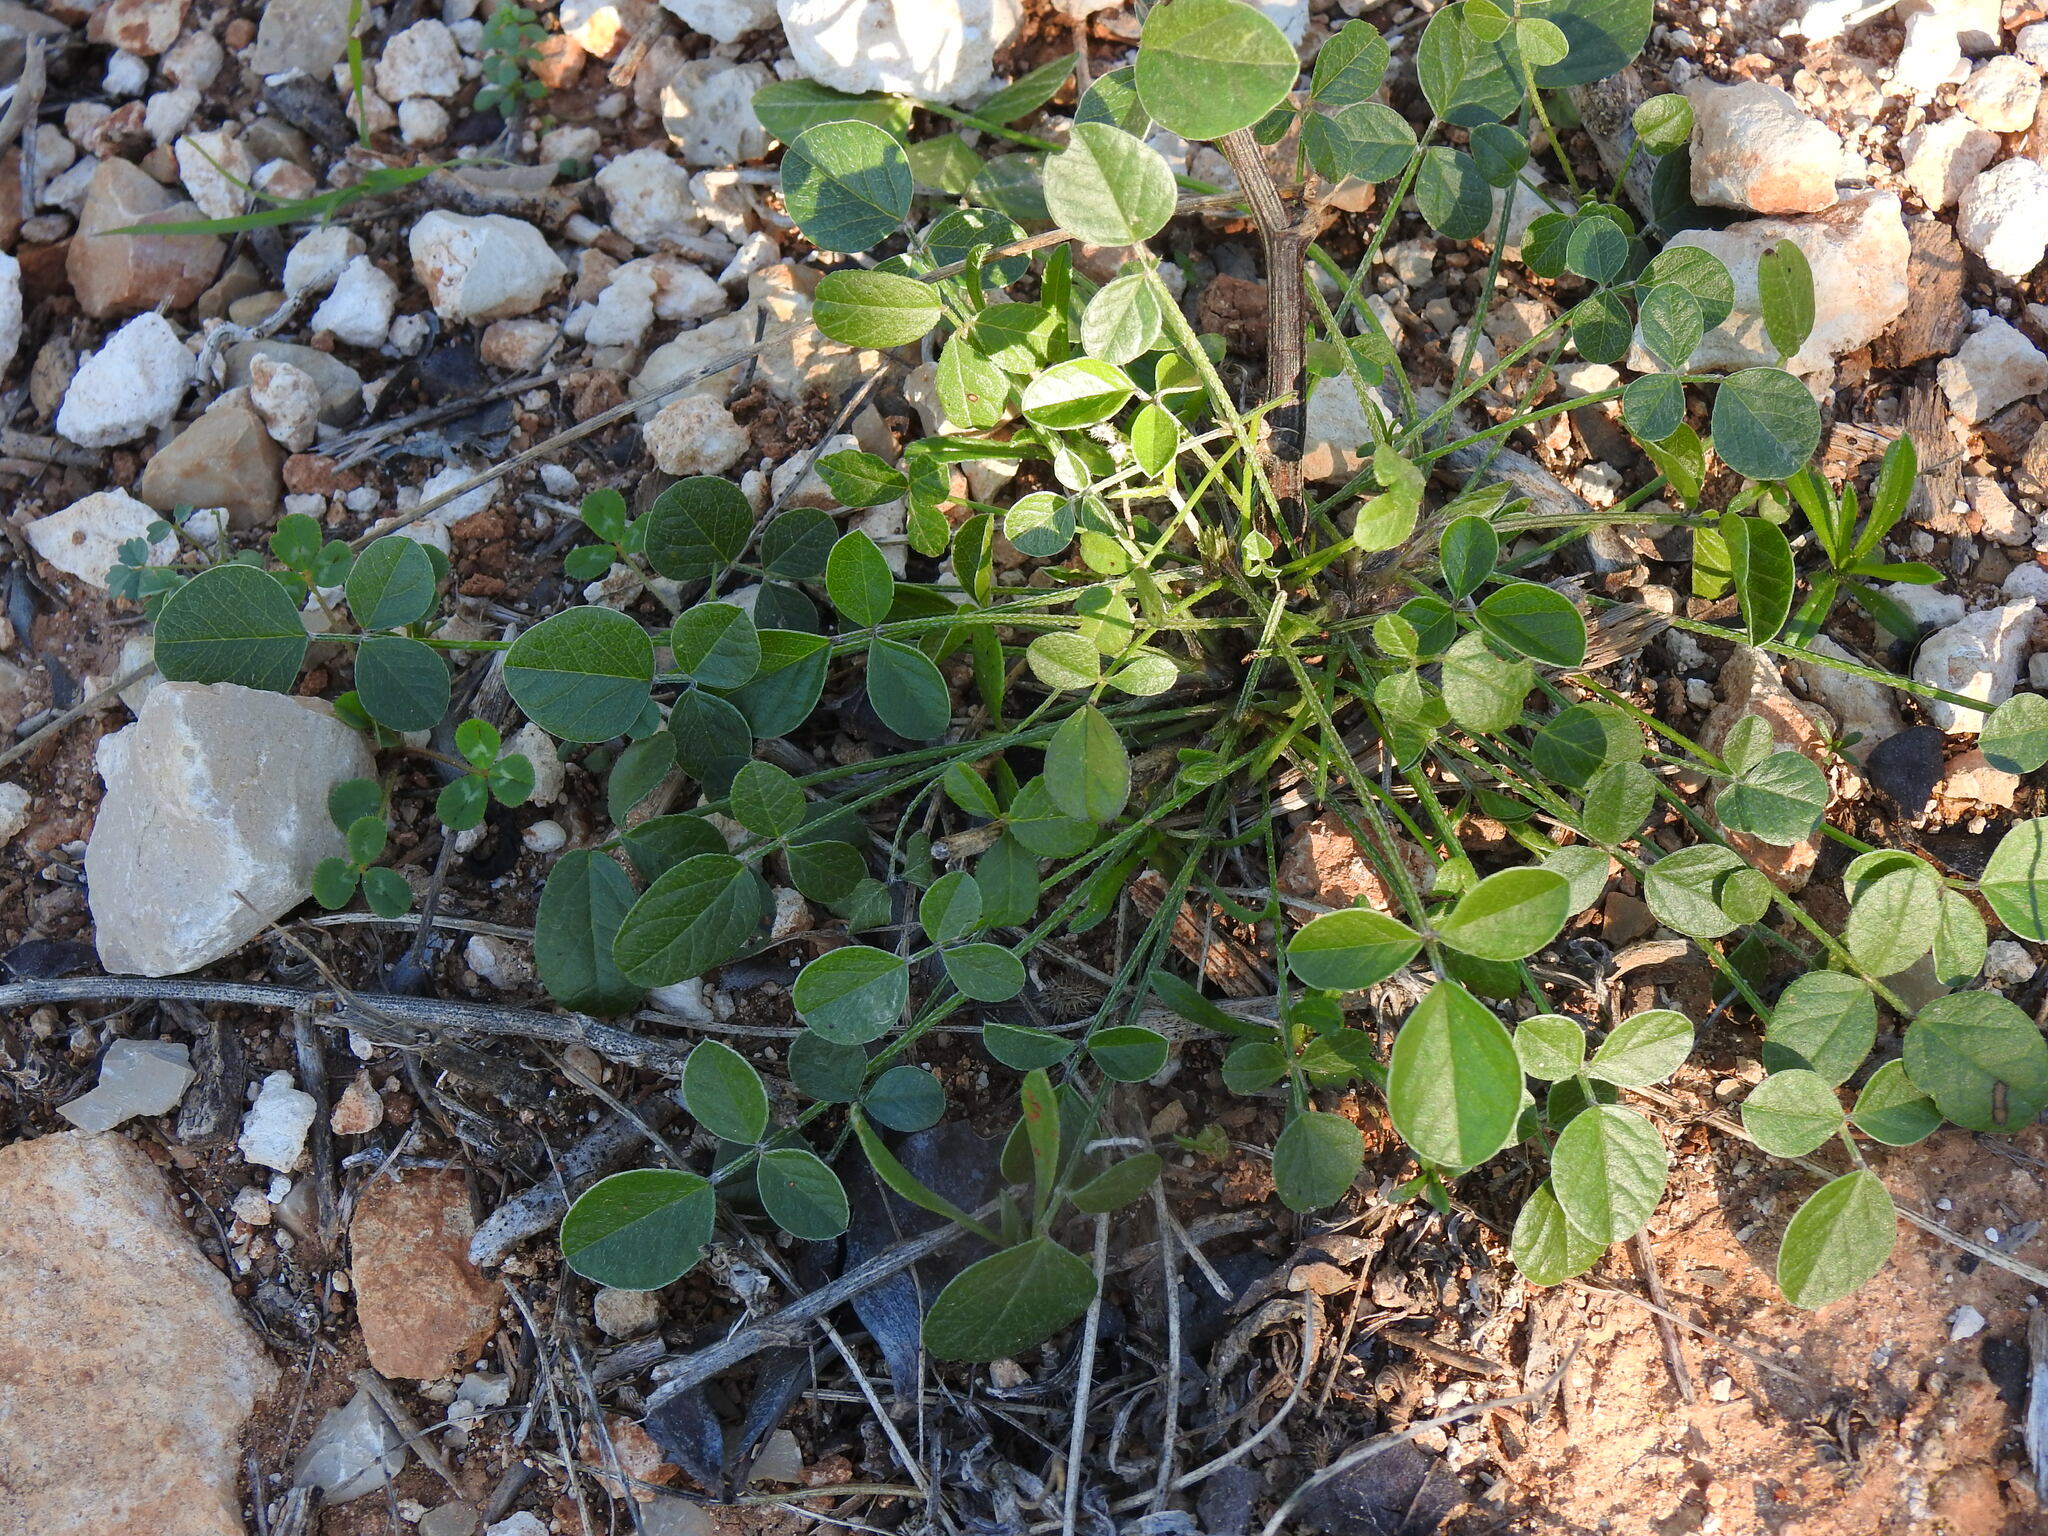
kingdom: Plantae
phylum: Tracheophyta
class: Magnoliopsida
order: Fabales
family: Fabaceae
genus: Bituminaria
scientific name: Bituminaria bituminosa
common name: Arabian pea
